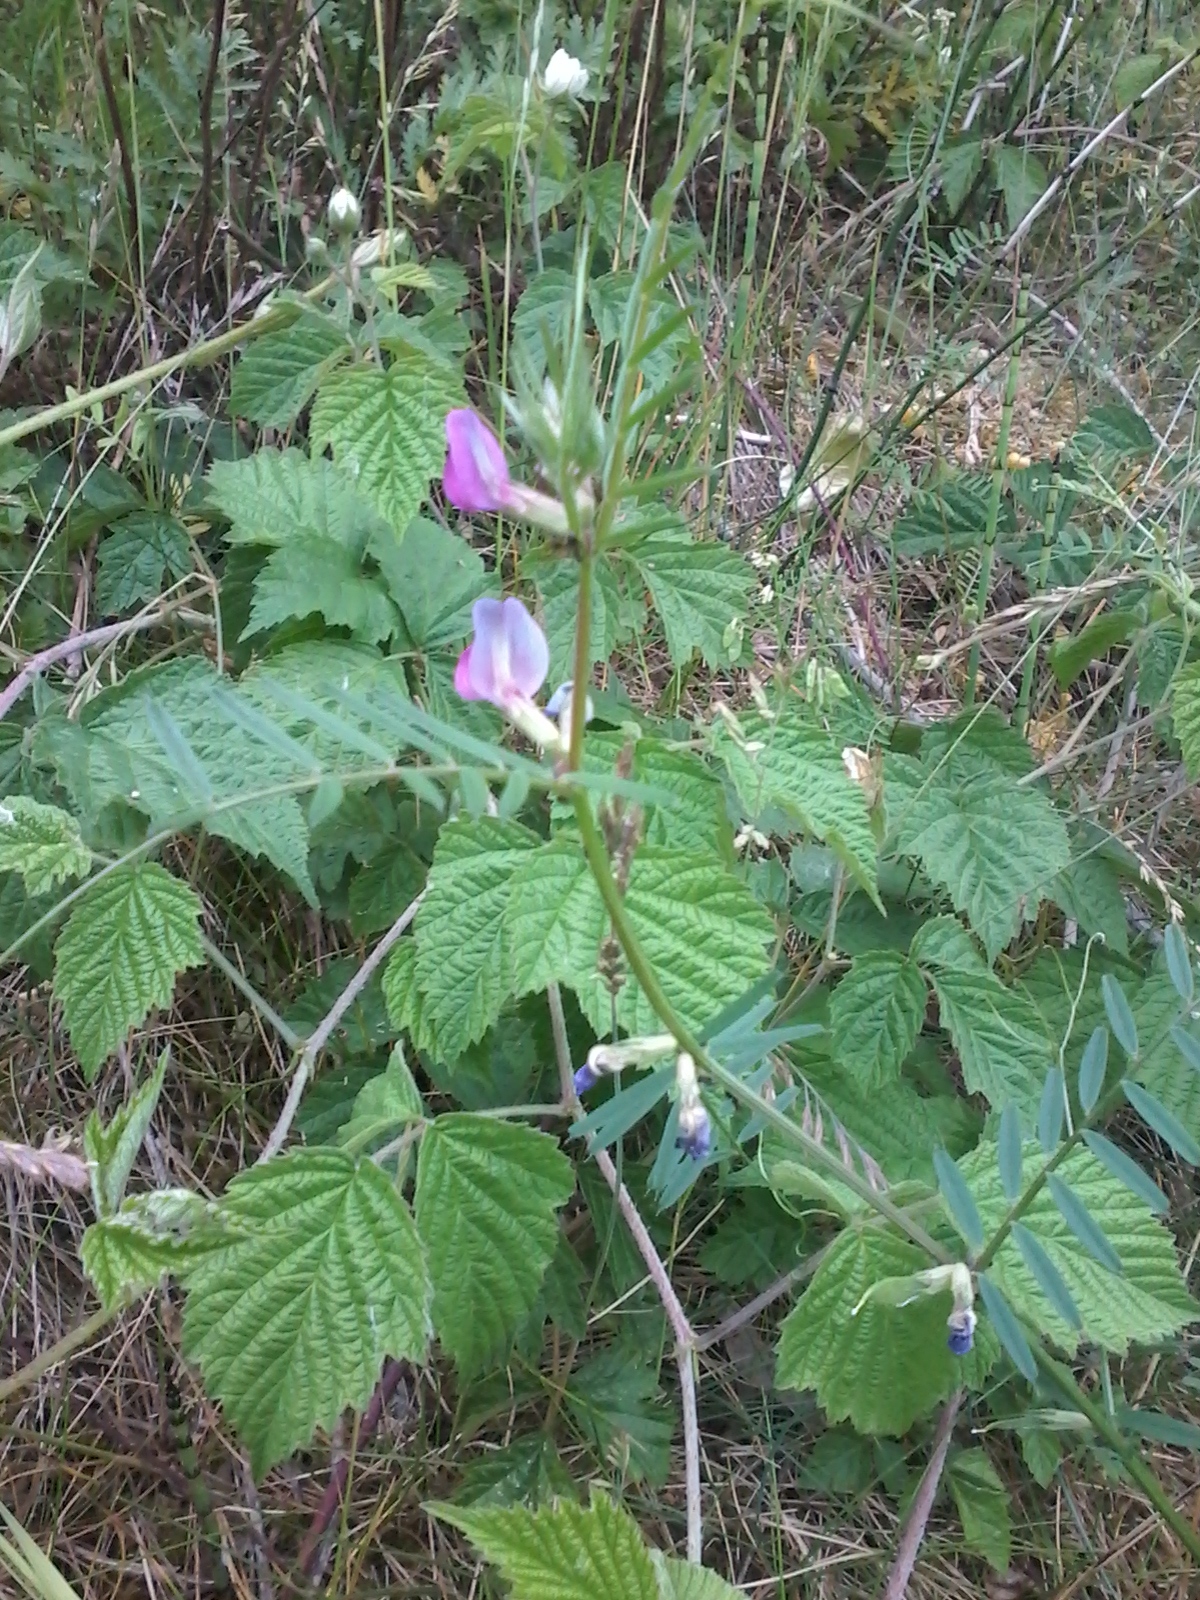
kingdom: Plantae
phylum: Tracheophyta
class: Magnoliopsida
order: Fabales
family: Fabaceae
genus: Vicia
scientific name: Vicia sativa
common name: Garden vetch
